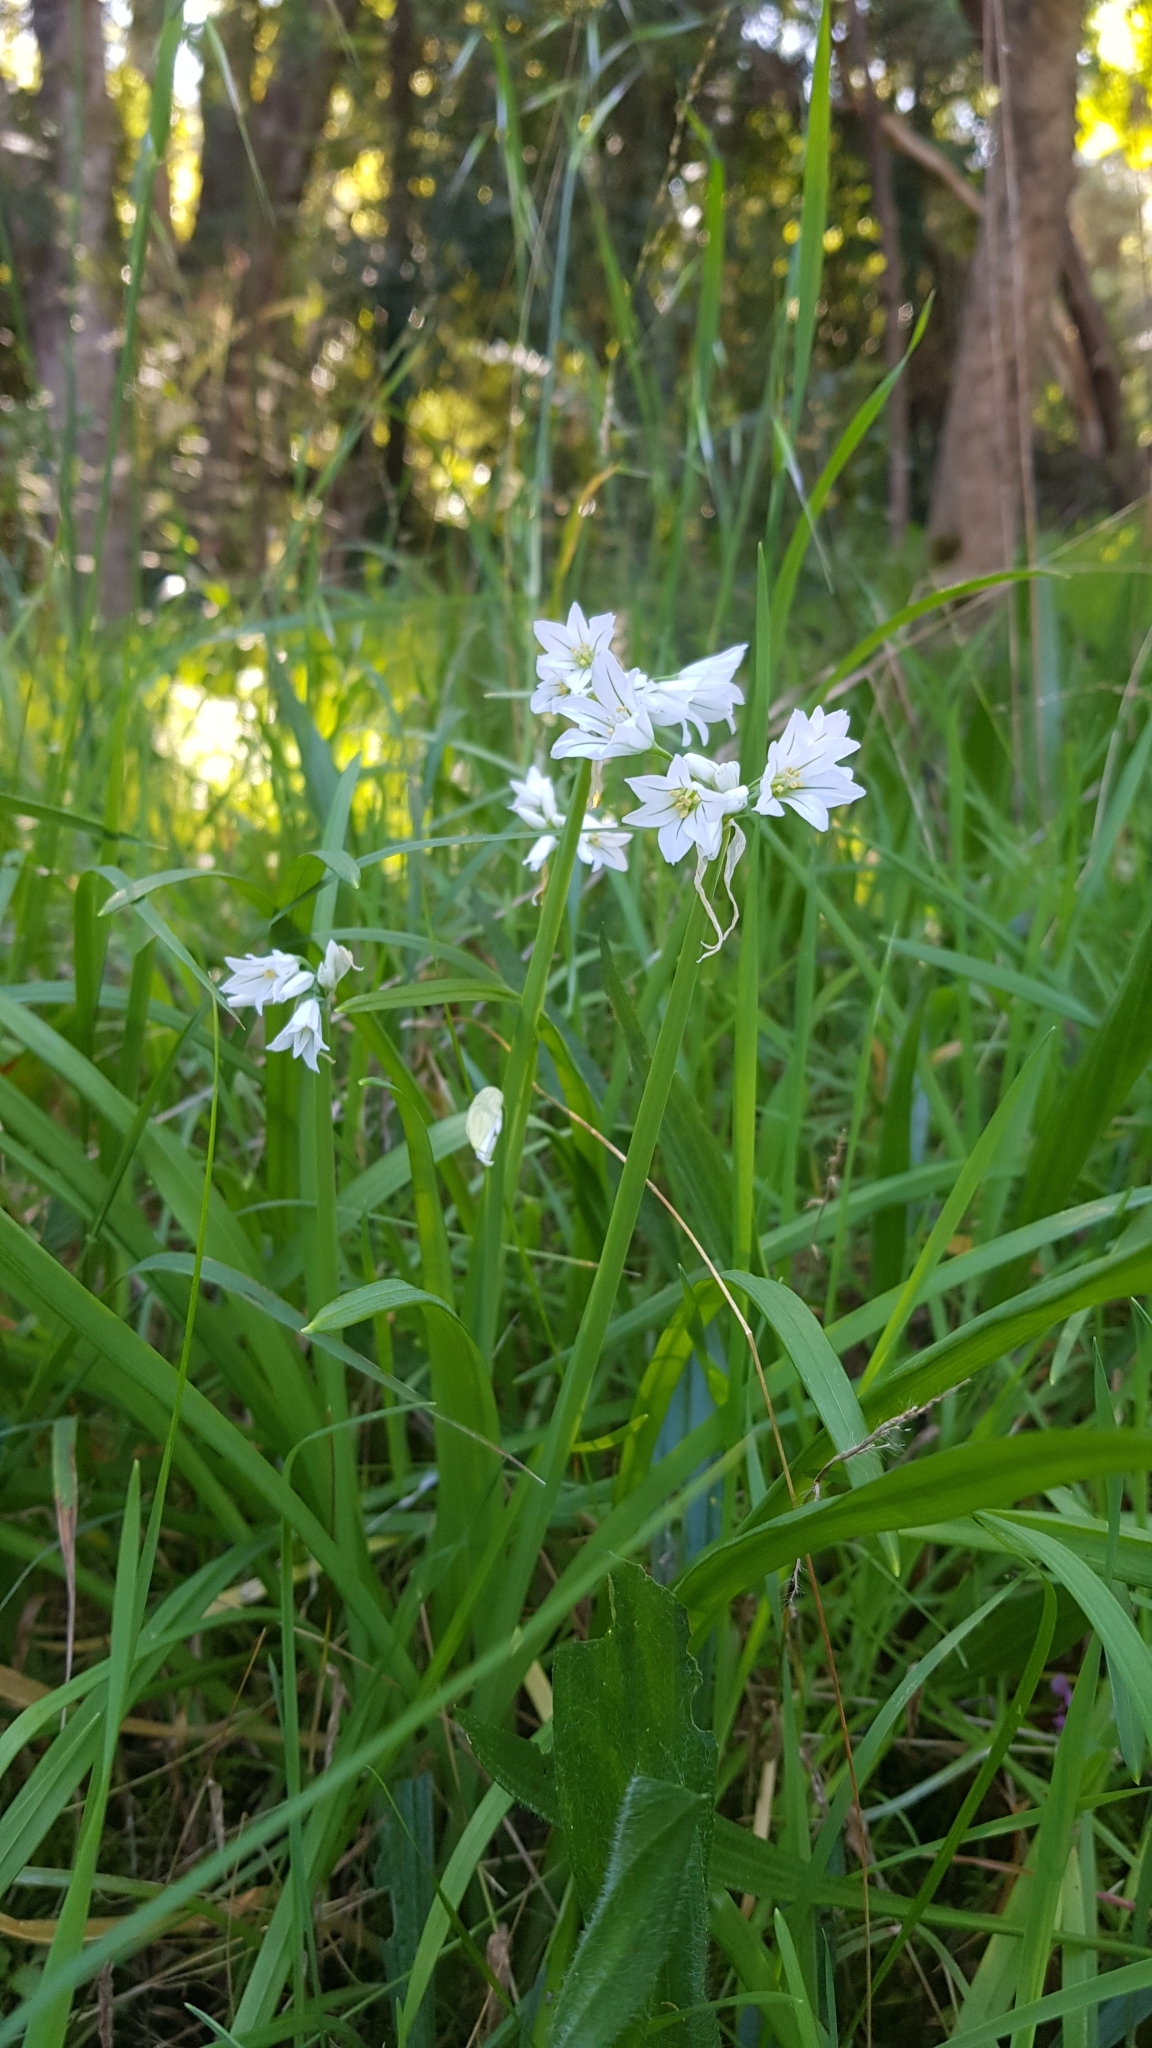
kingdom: Plantae
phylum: Tracheophyta
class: Liliopsida
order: Asparagales
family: Amaryllidaceae
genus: Allium
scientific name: Allium triquetrum
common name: Three-cornered garlic
